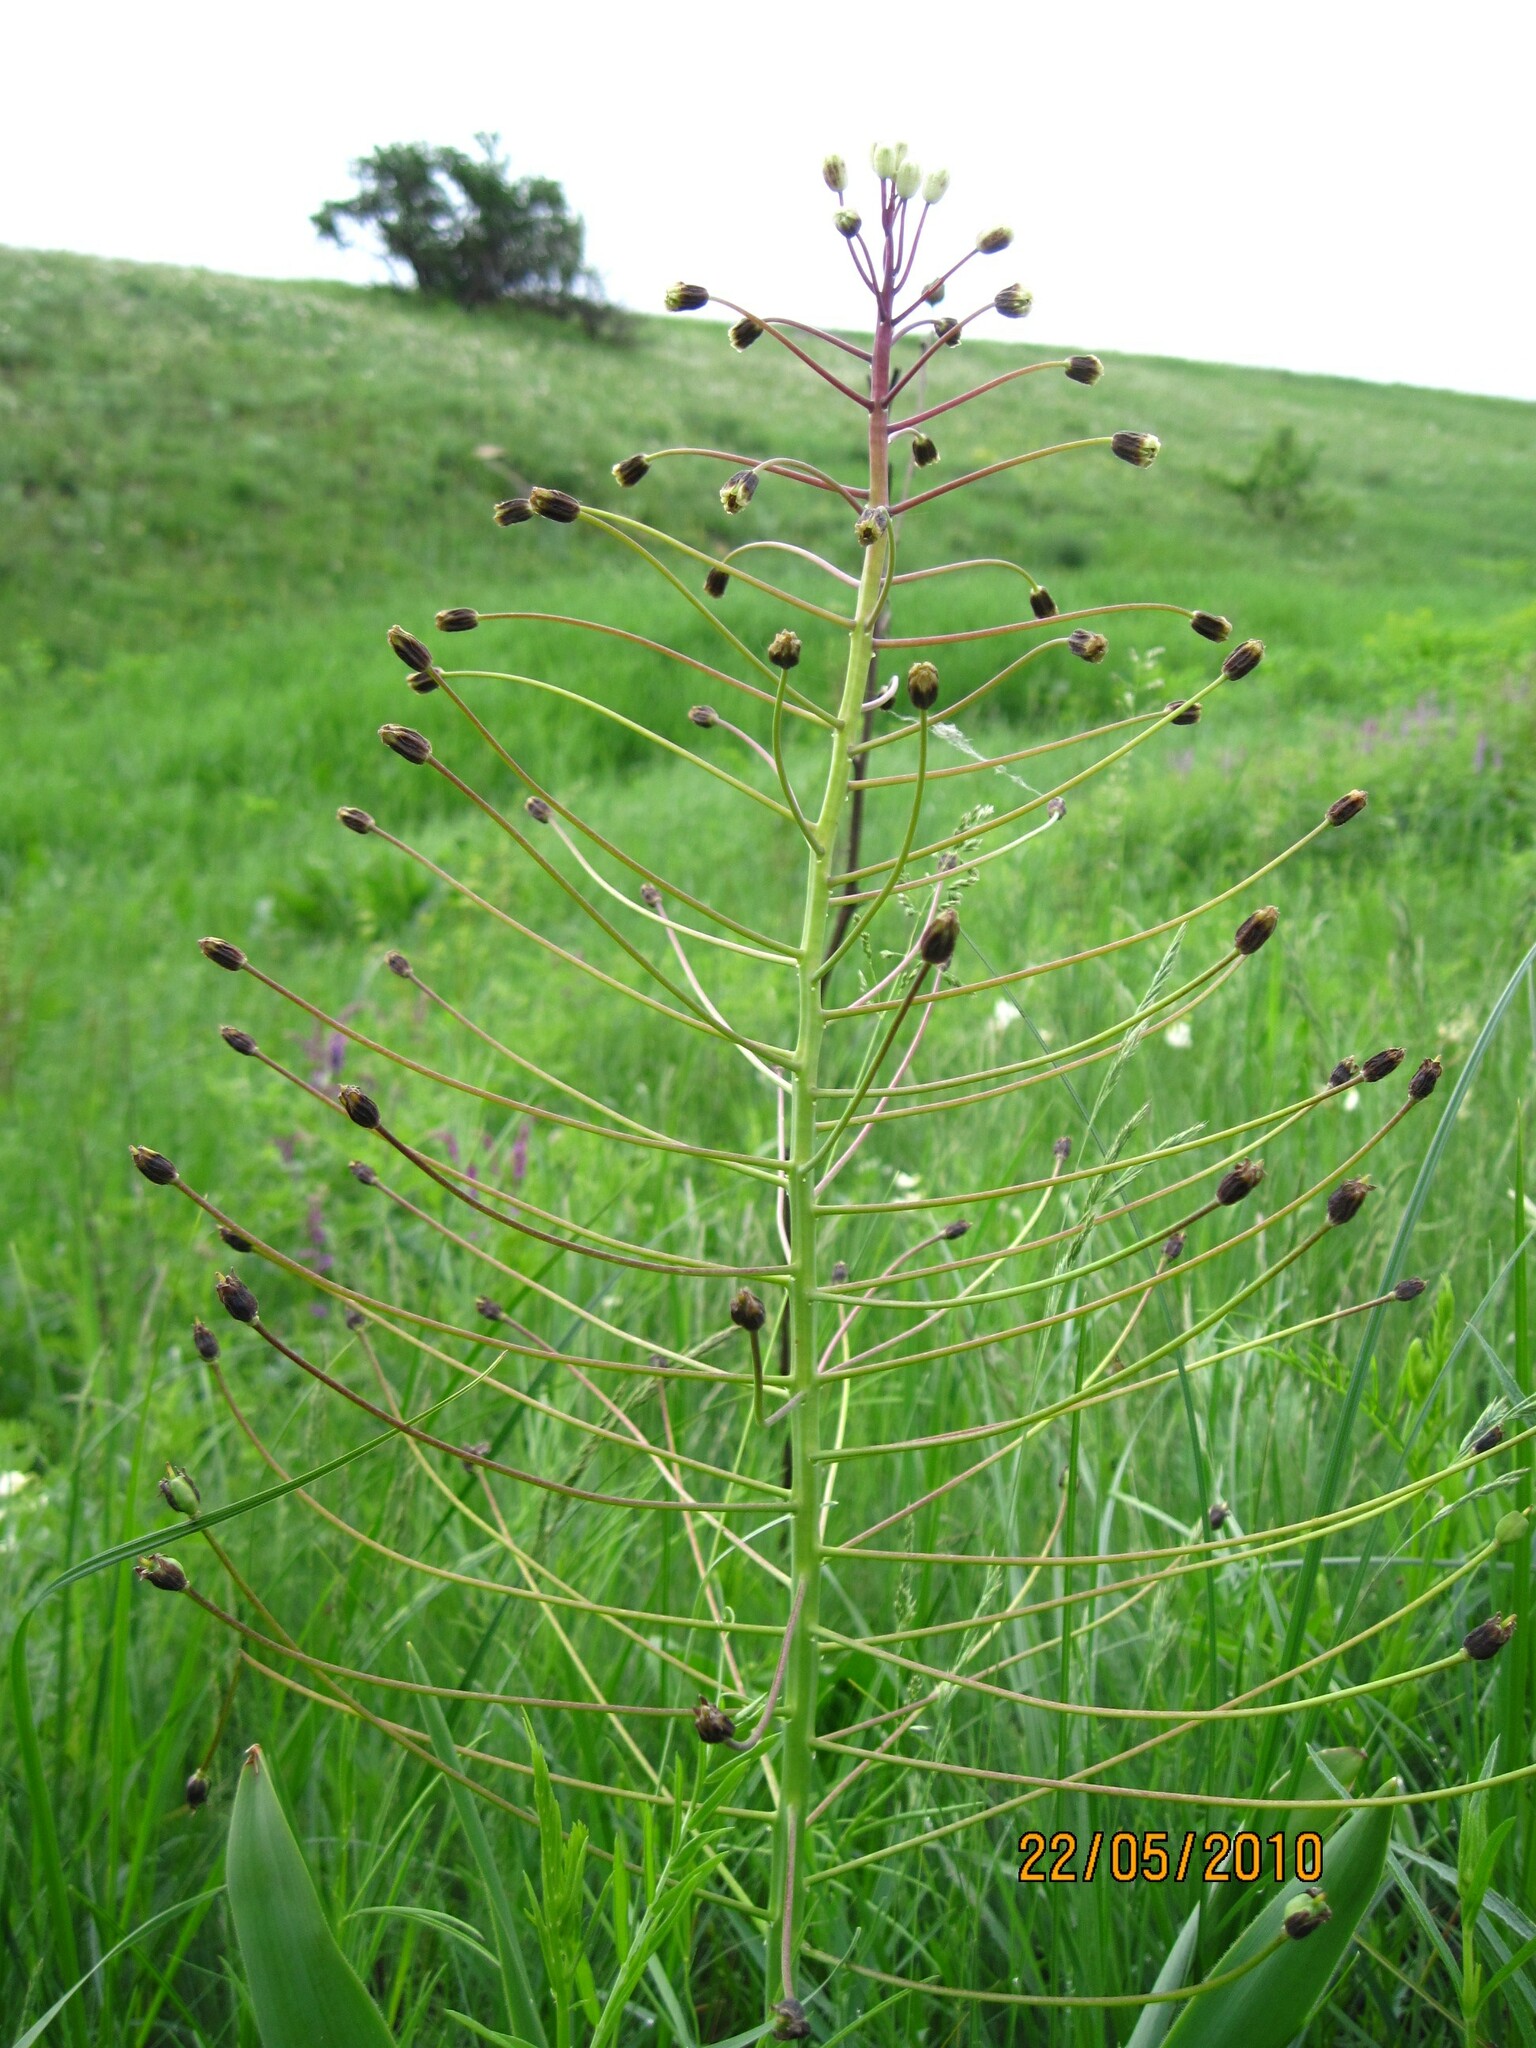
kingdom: Plantae
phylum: Tracheophyta
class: Liliopsida
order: Asparagales
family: Asparagaceae
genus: Bellevalia
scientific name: Bellevalia speciosa
